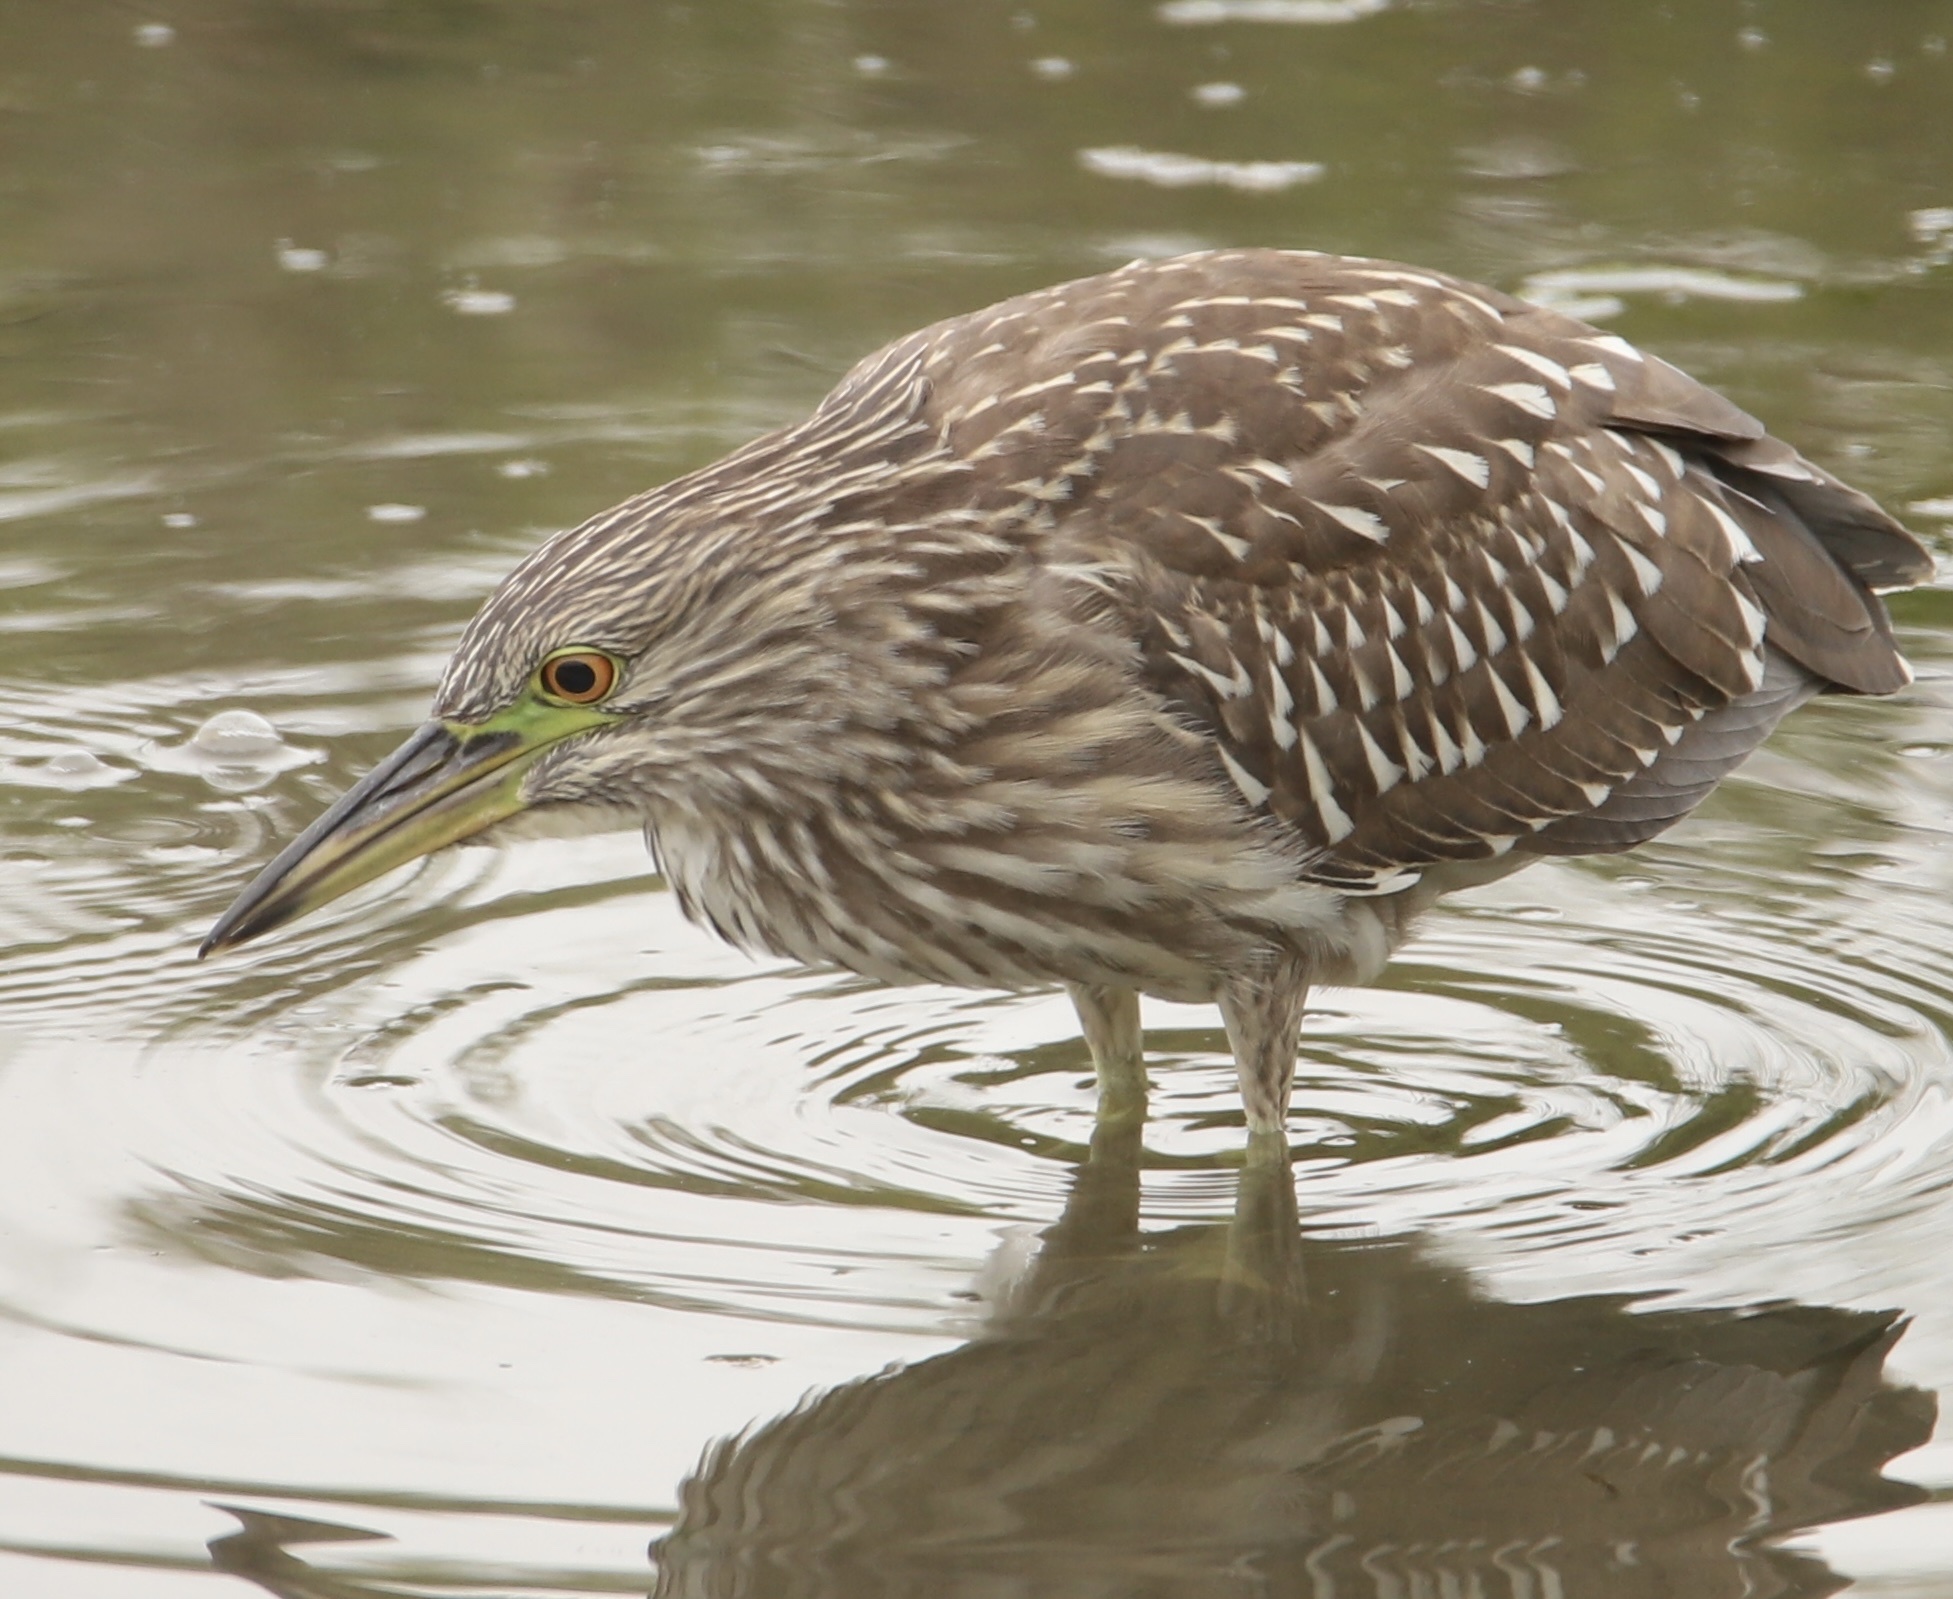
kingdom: Animalia
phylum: Chordata
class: Aves
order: Pelecaniformes
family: Ardeidae
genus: Nycticorax
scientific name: Nycticorax nycticorax
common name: Black-crowned night heron
